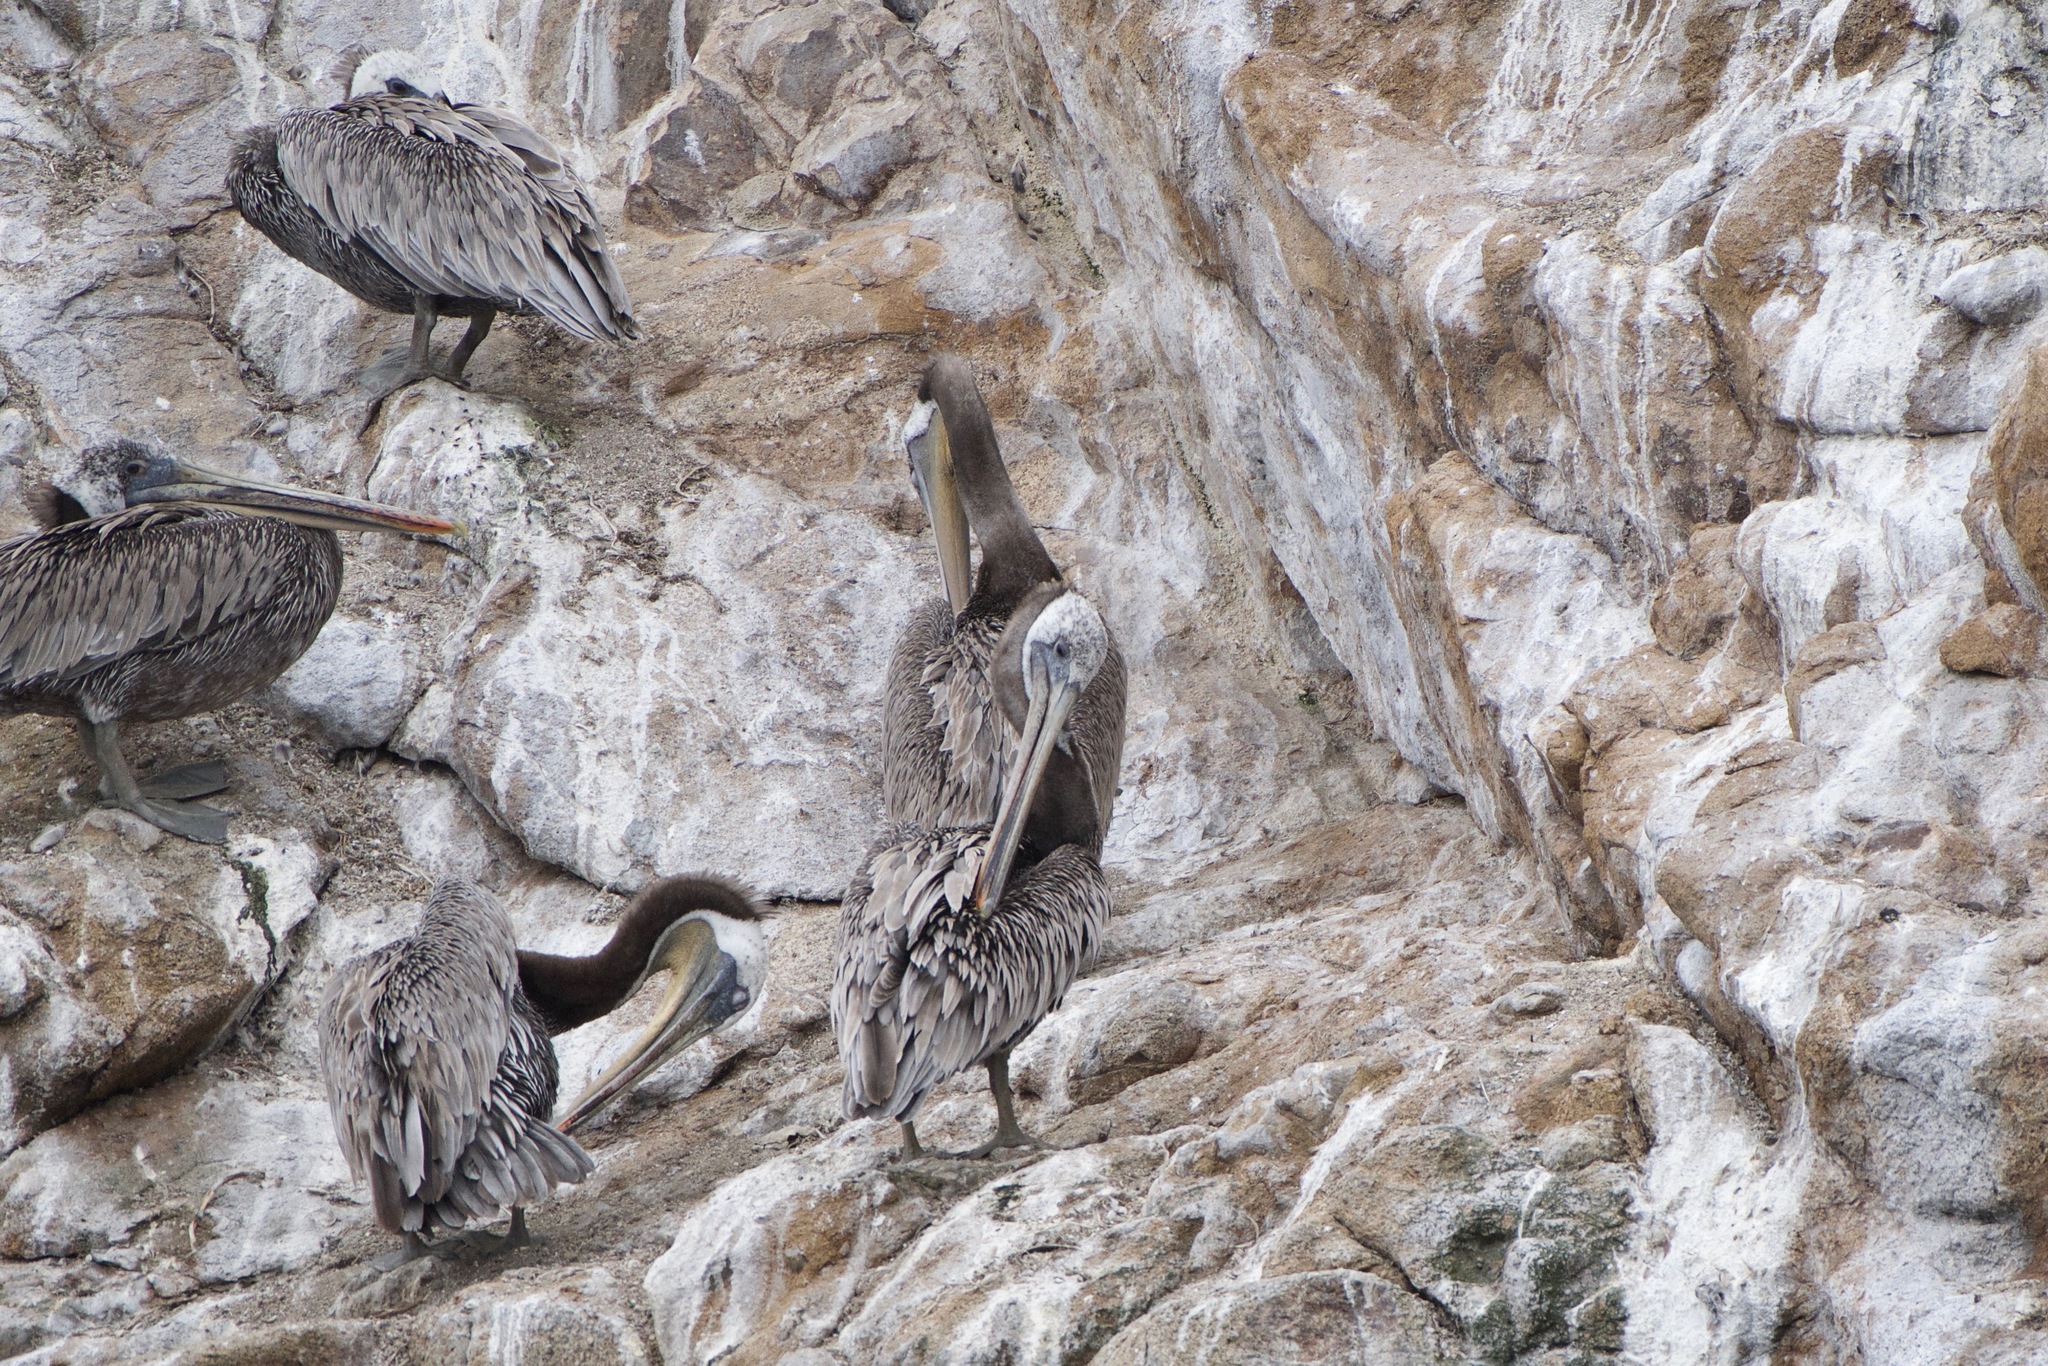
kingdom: Animalia
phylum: Chordata
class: Aves
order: Pelecaniformes
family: Pelecanidae
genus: Pelecanus
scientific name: Pelecanus occidentalis
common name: Brown pelican
